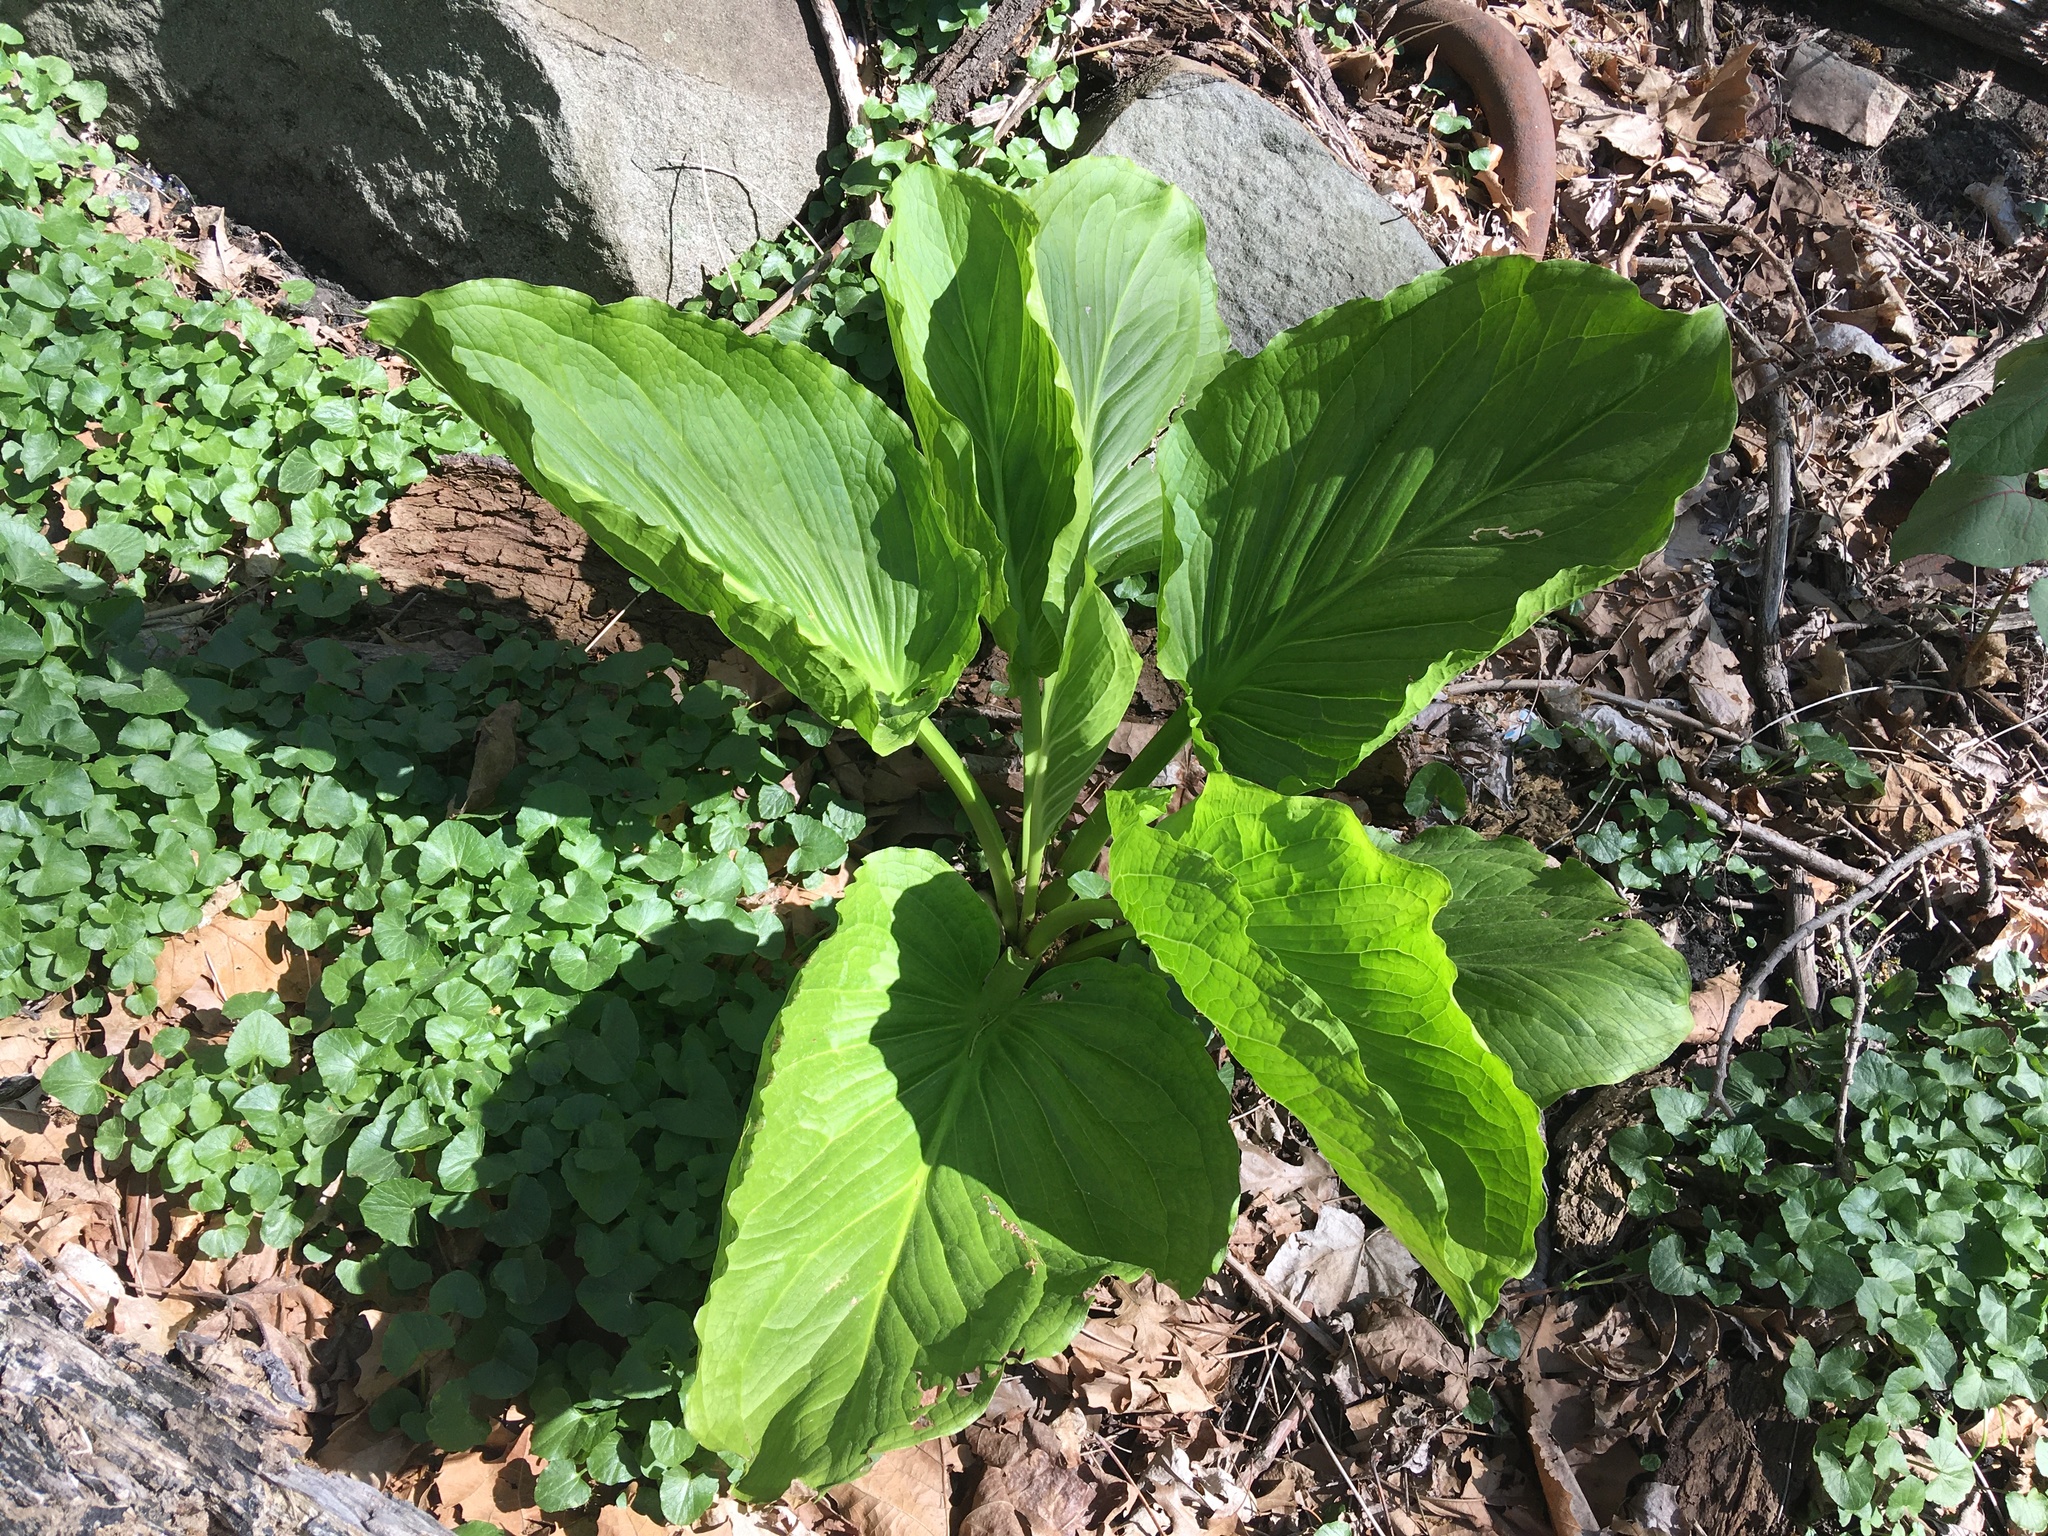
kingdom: Plantae
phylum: Tracheophyta
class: Liliopsida
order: Alismatales
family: Araceae
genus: Symplocarpus
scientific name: Symplocarpus foetidus
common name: Eastern skunk cabbage
